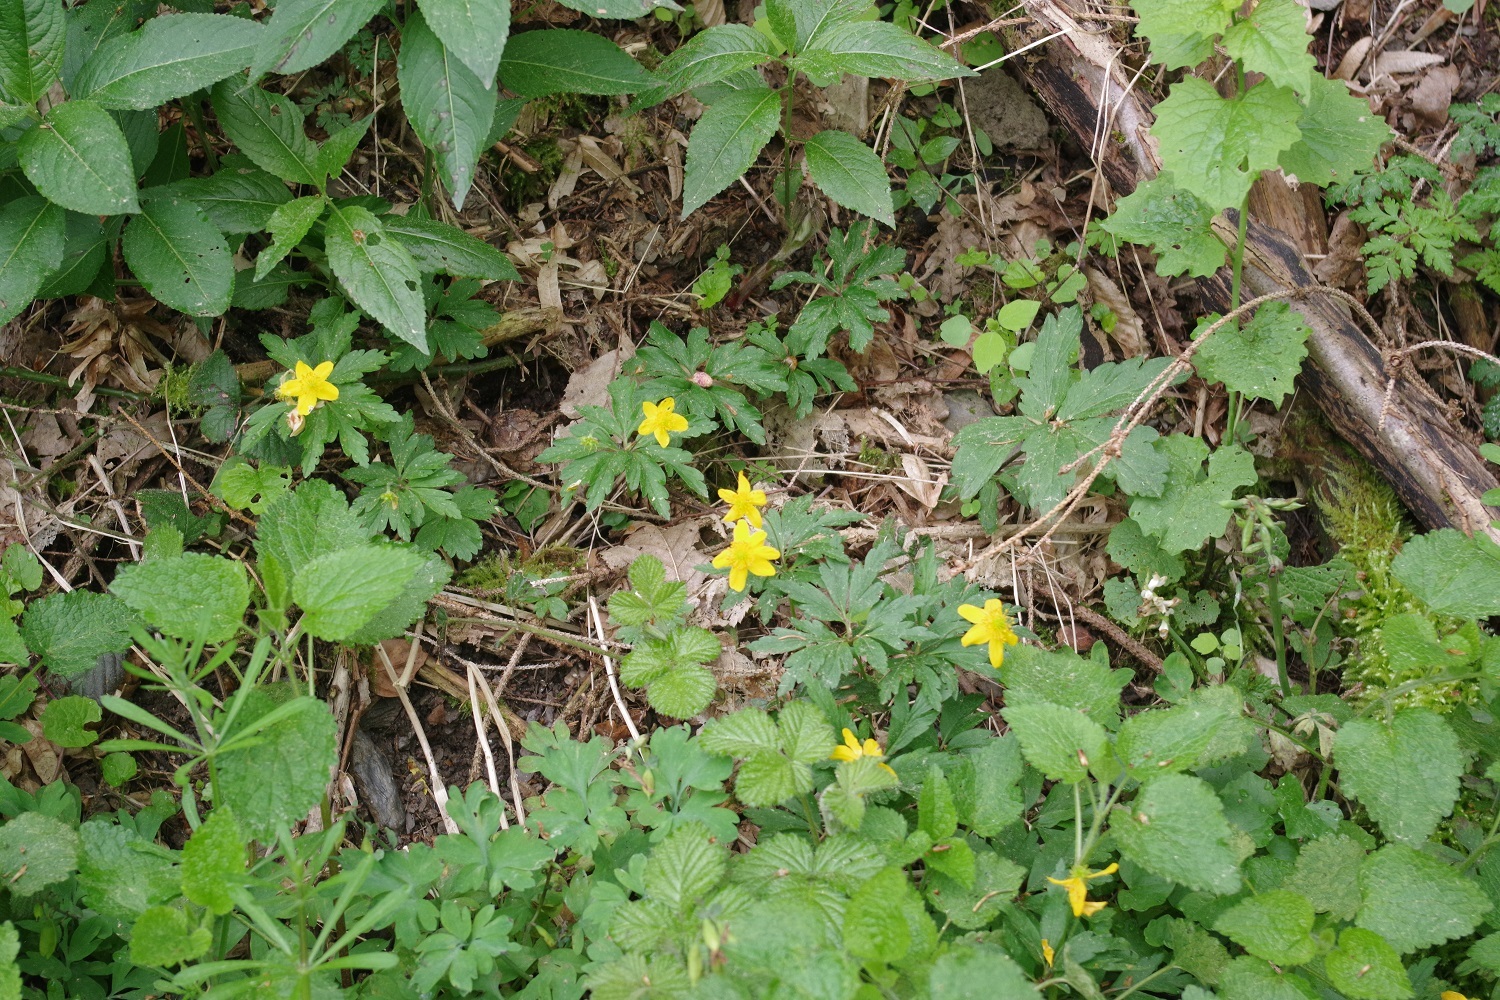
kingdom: Plantae
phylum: Tracheophyta
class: Magnoliopsida
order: Ranunculales
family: Ranunculaceae
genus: Anemone
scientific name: Anemone ranunculoides
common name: Yellow anemone
